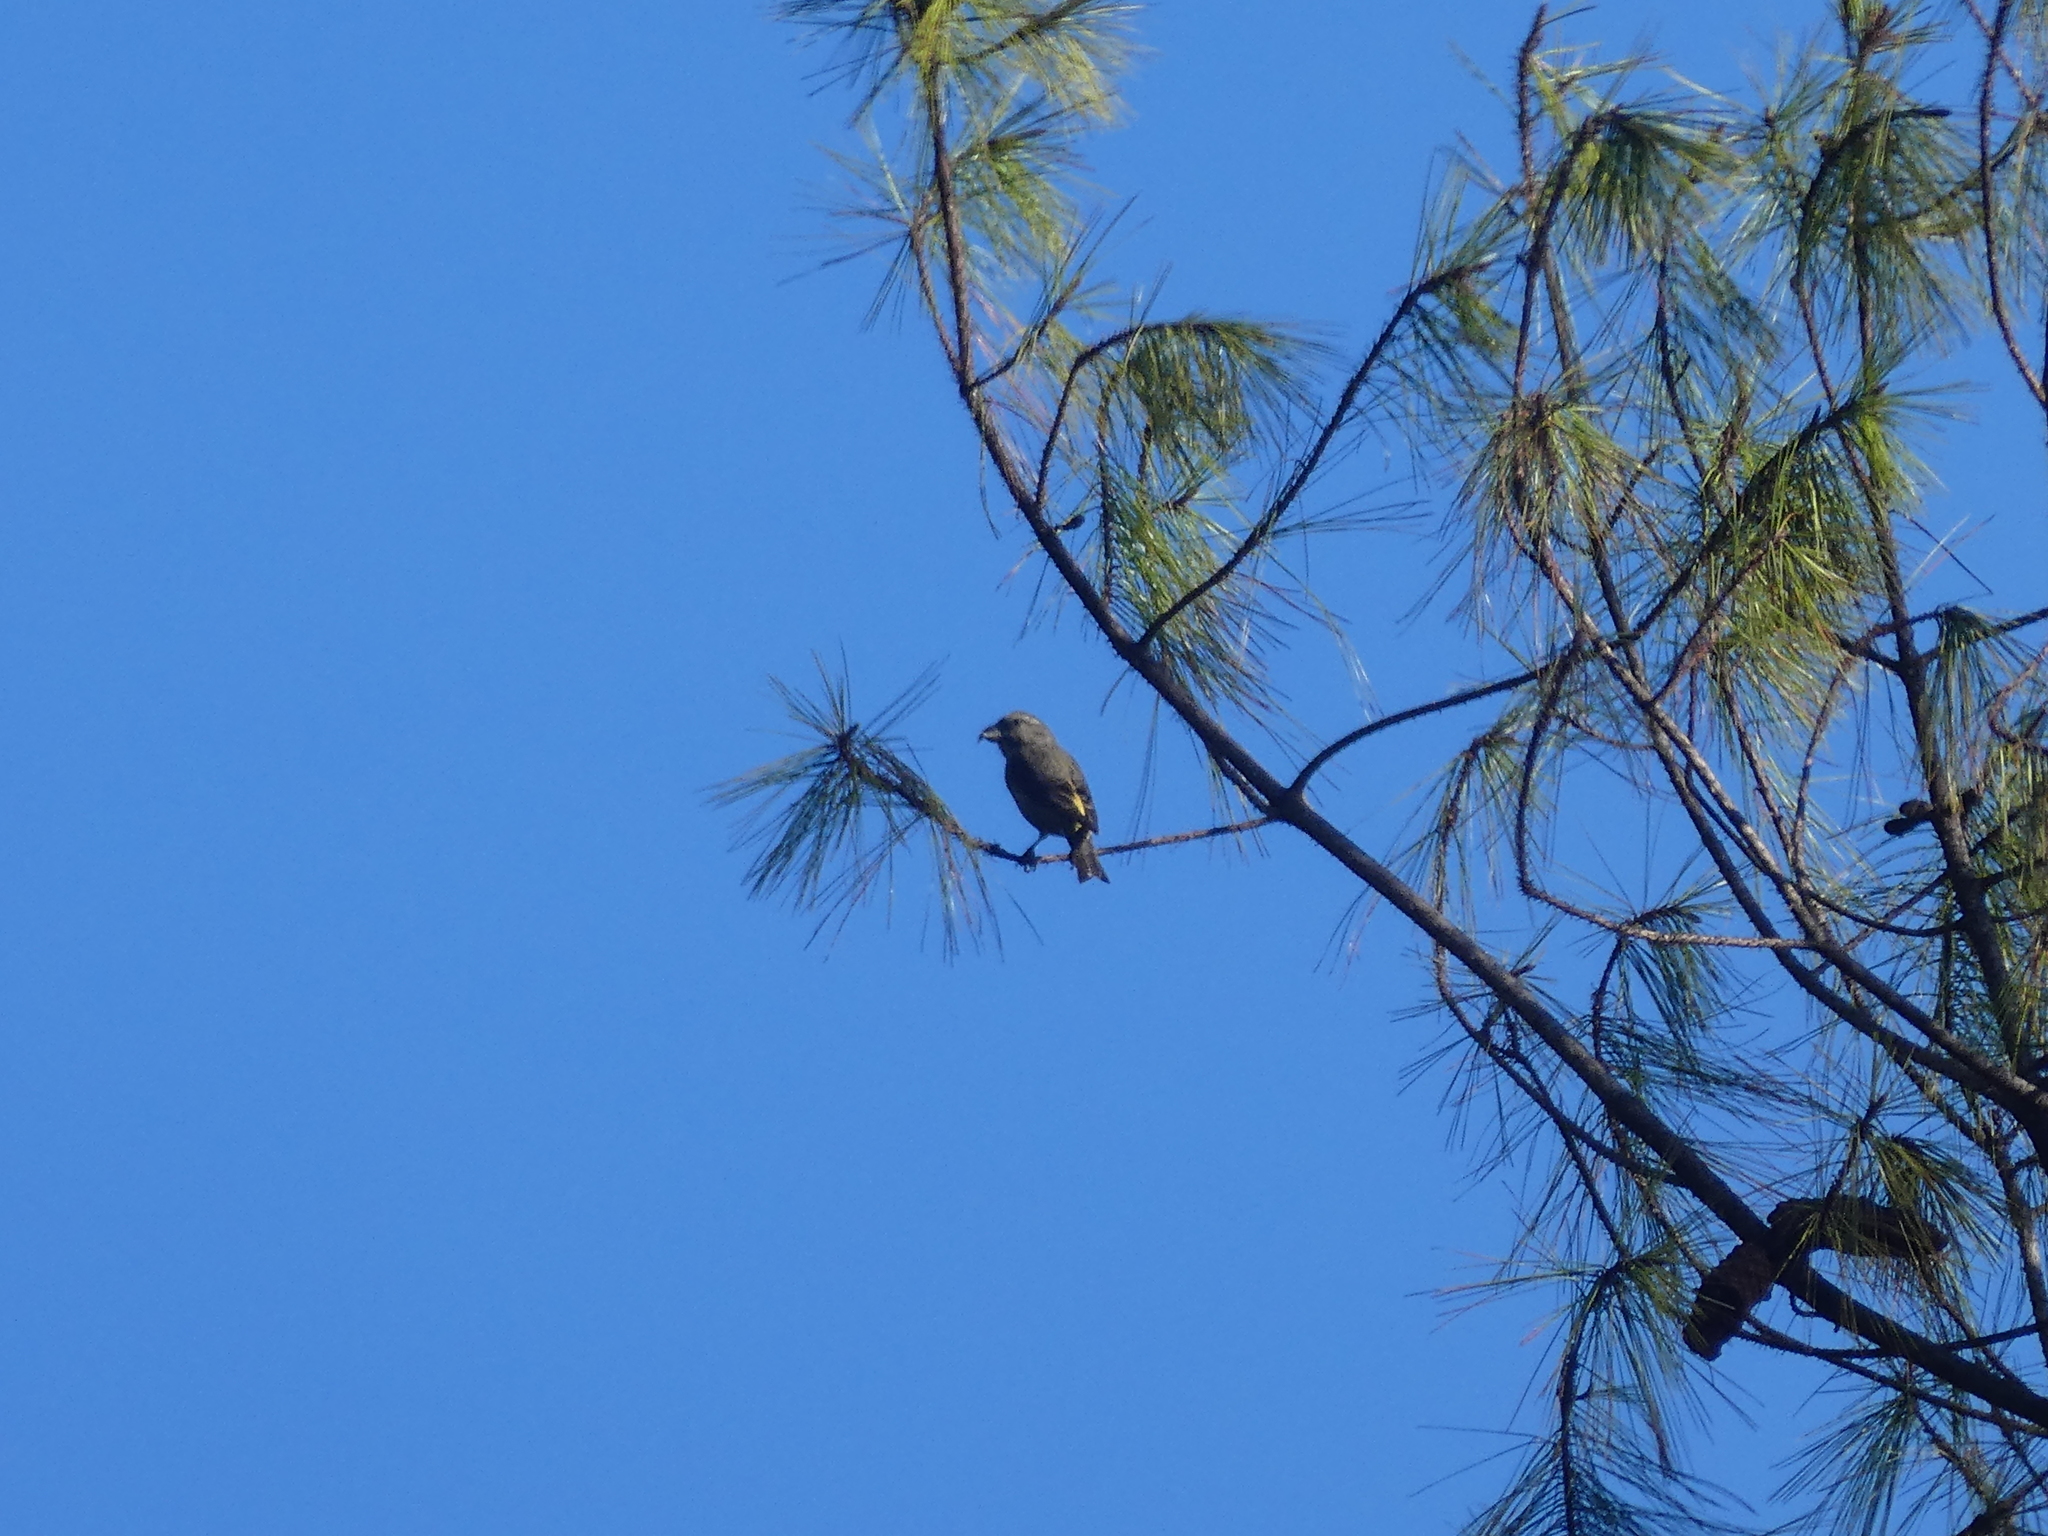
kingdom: Animalia
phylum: Chordata
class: Aves
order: Passeriformes
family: Fringillidae
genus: Loxia
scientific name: Loxia curvirostra
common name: Red crossbill
